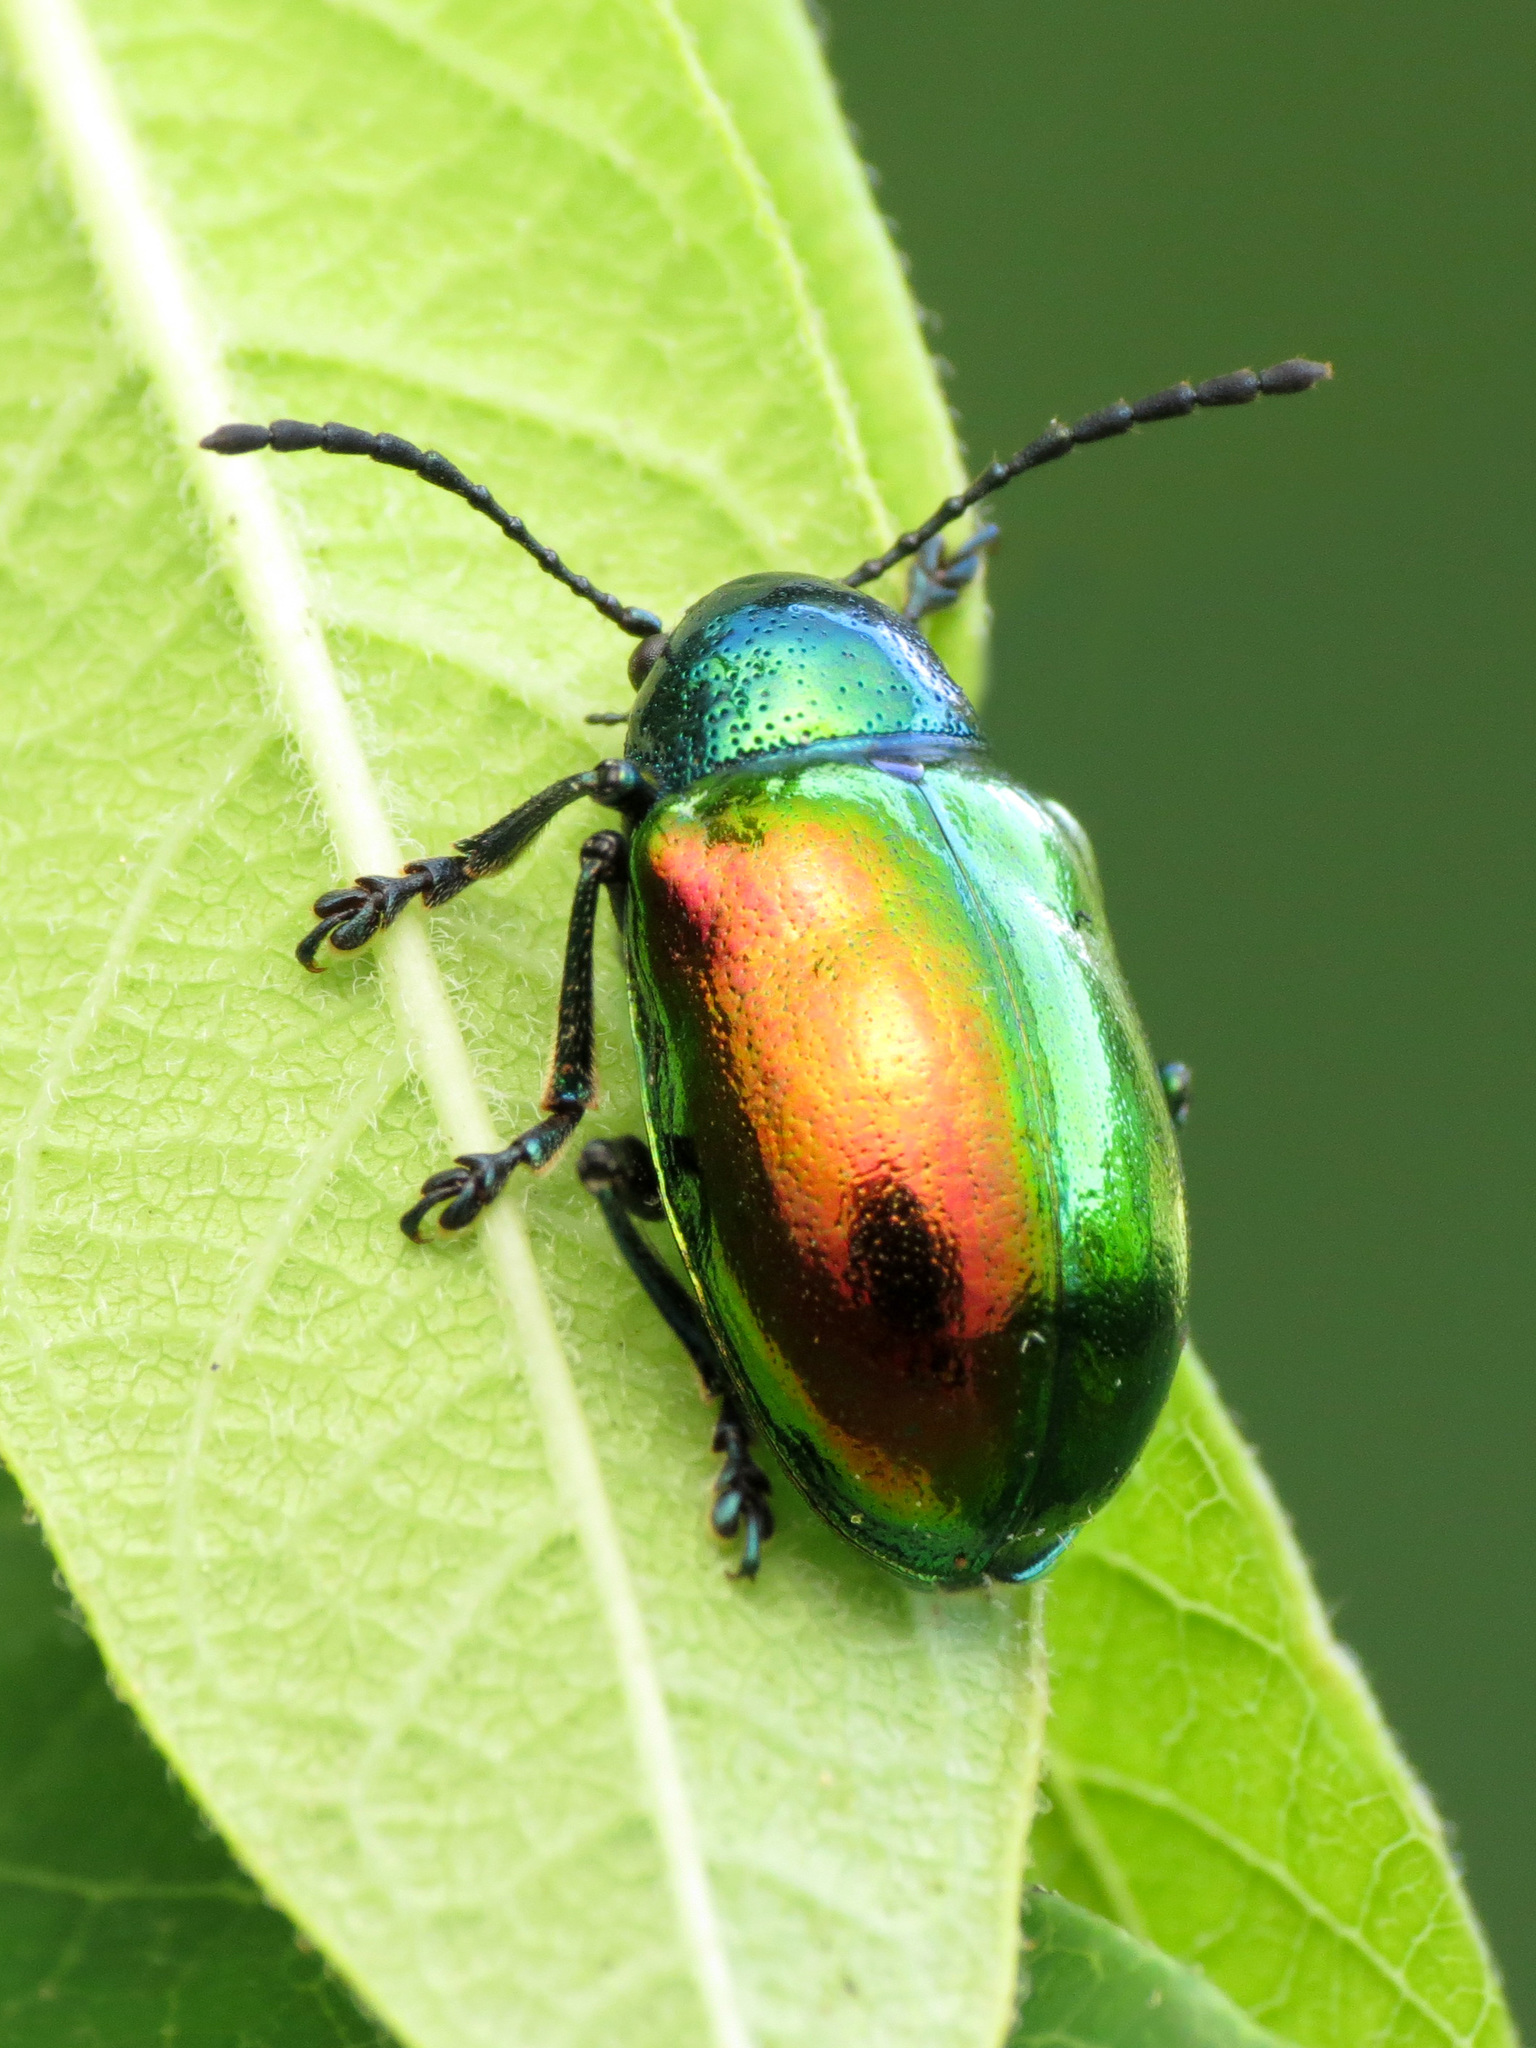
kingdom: Animalia
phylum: Arthropoda
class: Insecta
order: Coleoptera
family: Chrysomelidae
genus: Chrysochus
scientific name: Chrysochus auratus
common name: Dogbane leaf beetle
